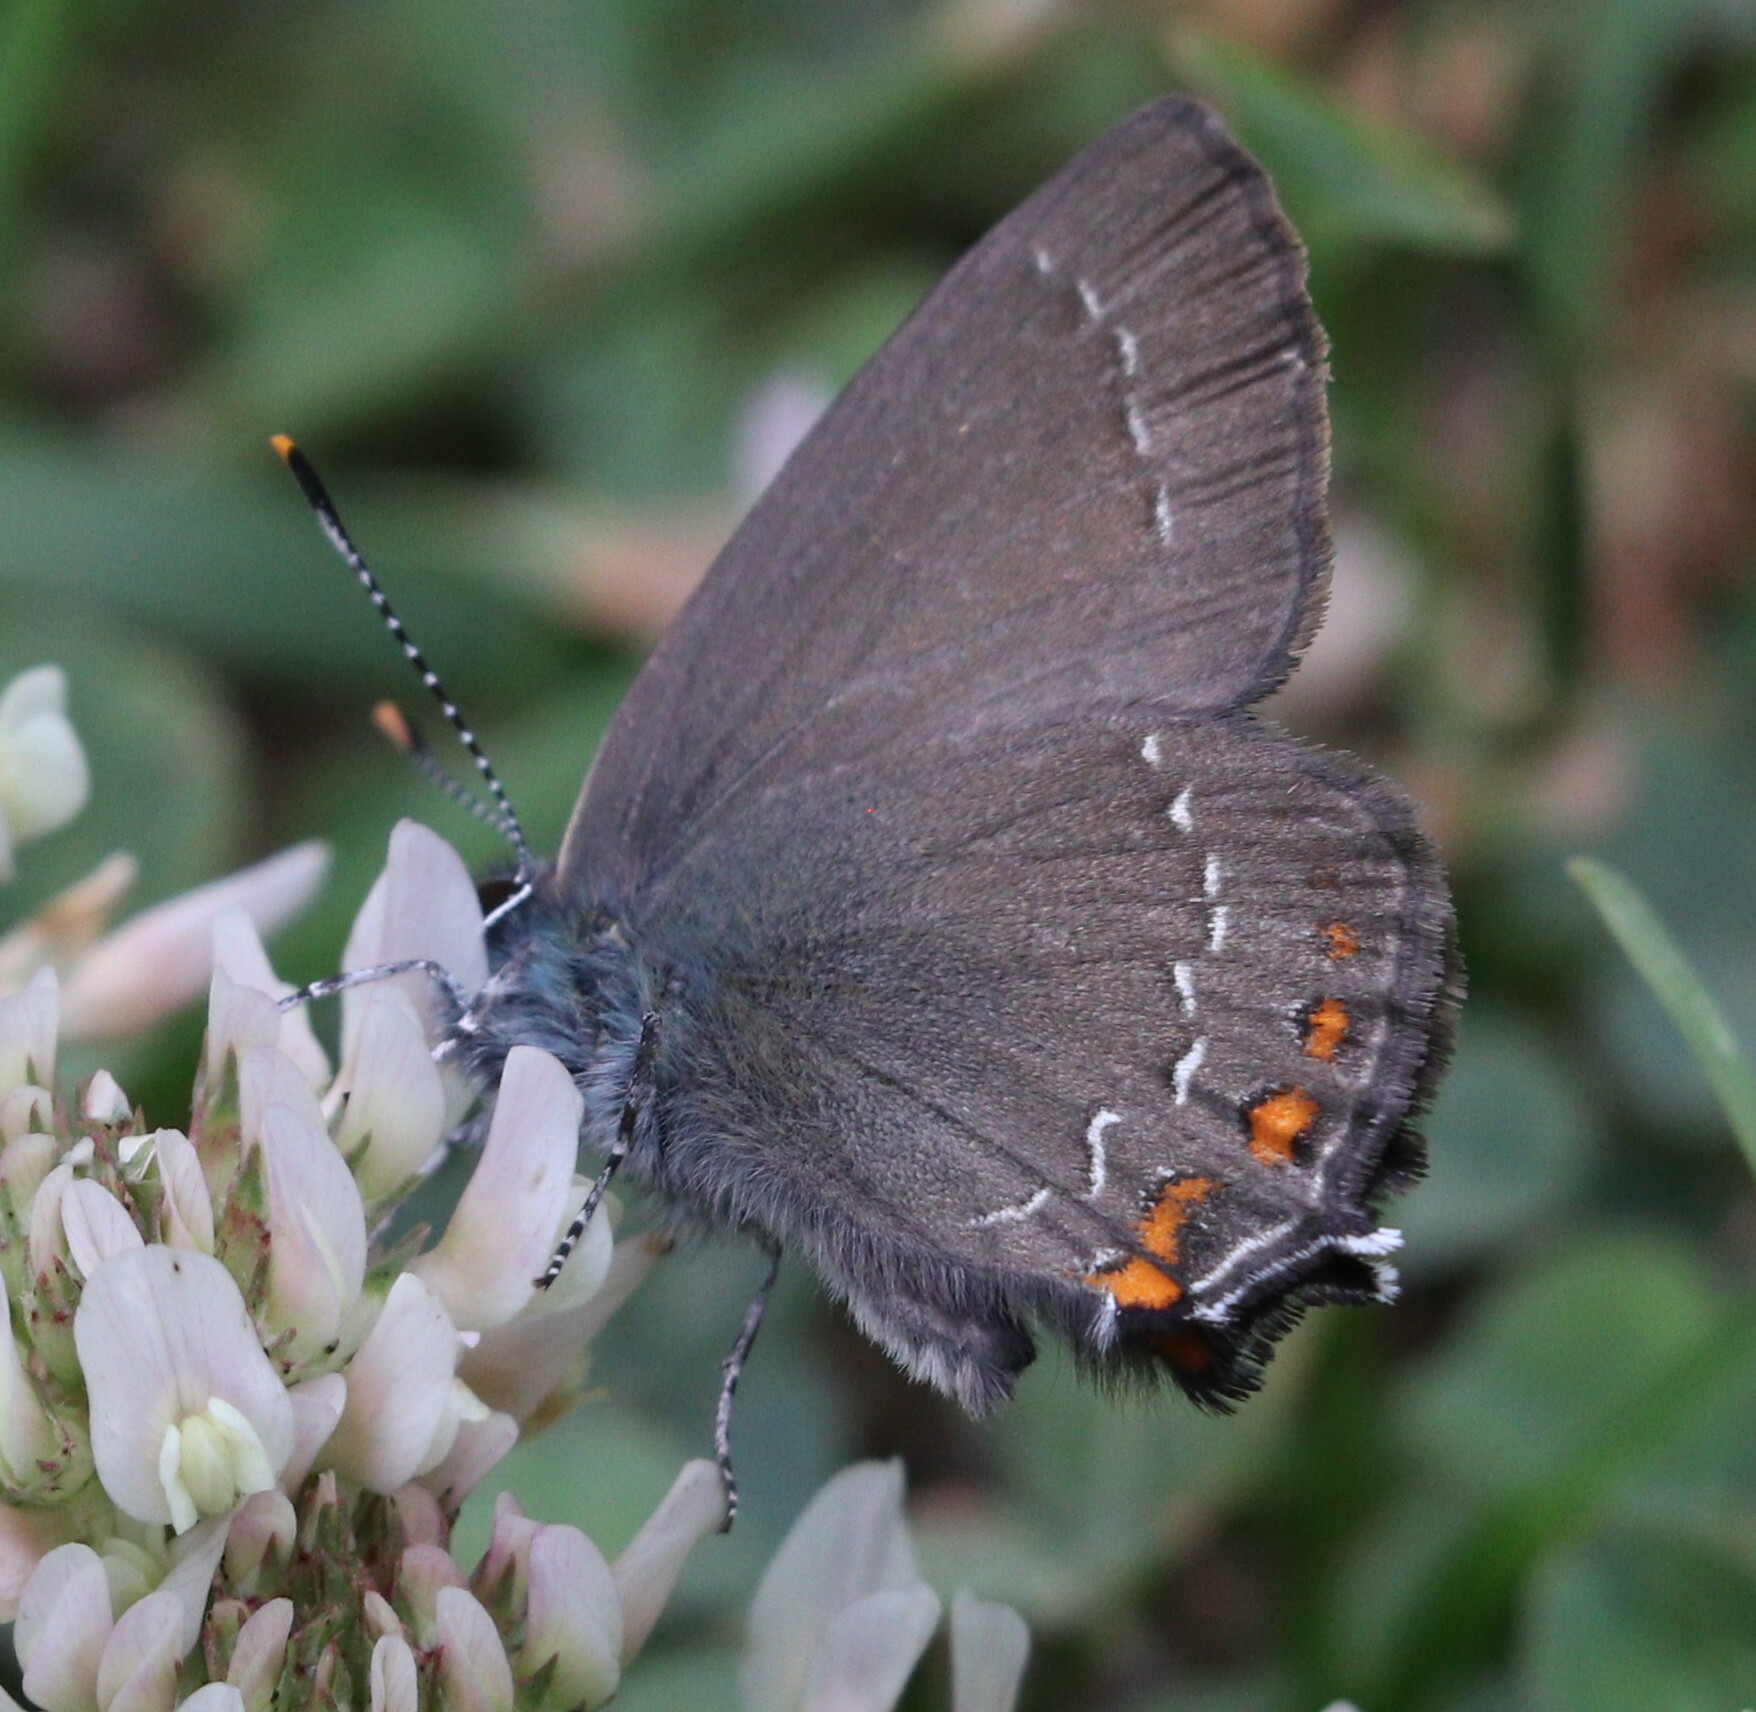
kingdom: Animalia
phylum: Arthropoda
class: Insecta
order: Lepidoptera
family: Lycaenidae
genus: Nordmannia
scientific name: Nordmannia ilicis
